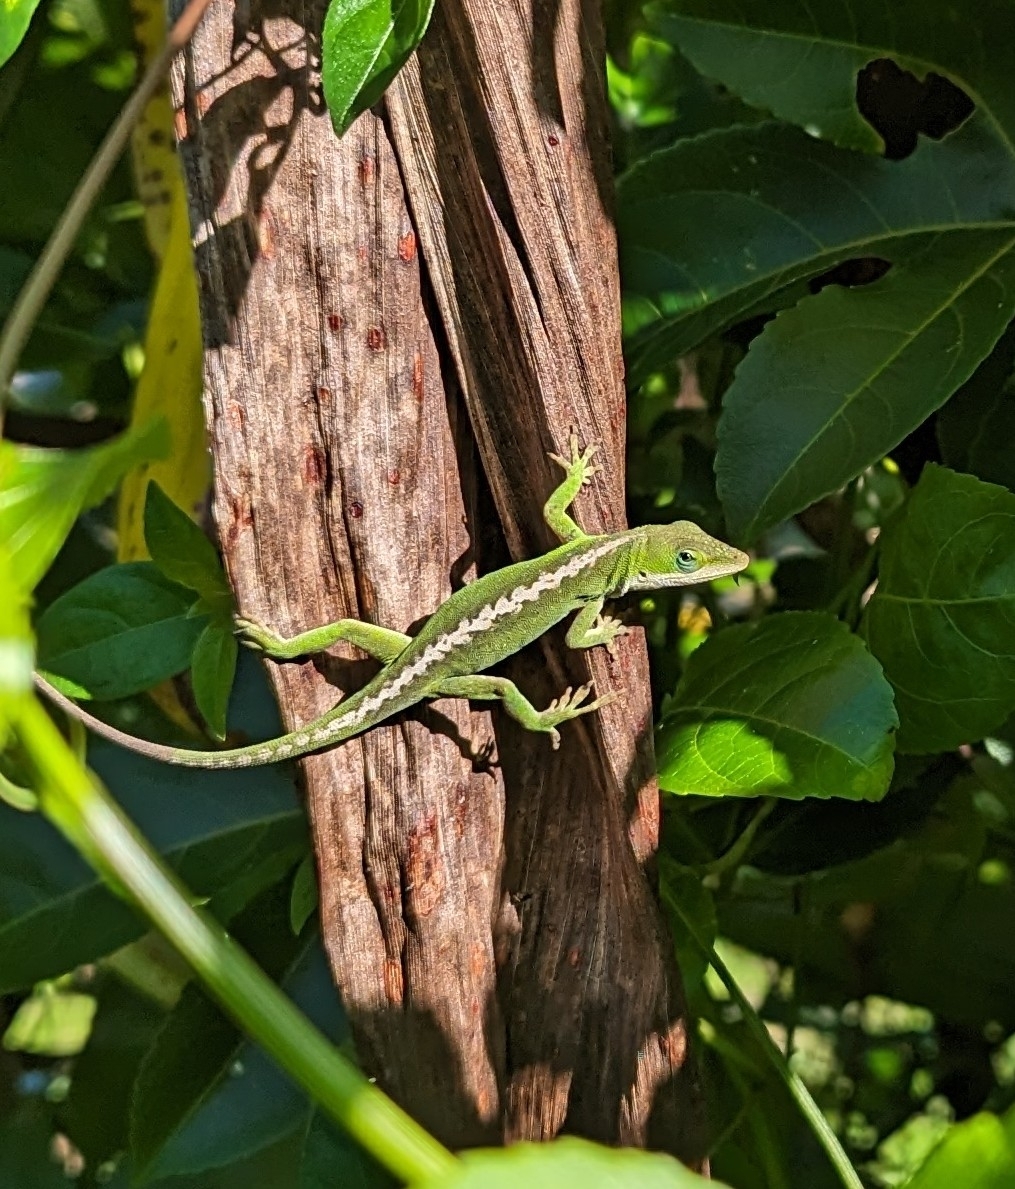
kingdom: Animalia
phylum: Chordata
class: Squamata
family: Dactyloidae
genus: Anolis
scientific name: Anolis carolinensis
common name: Green anole
